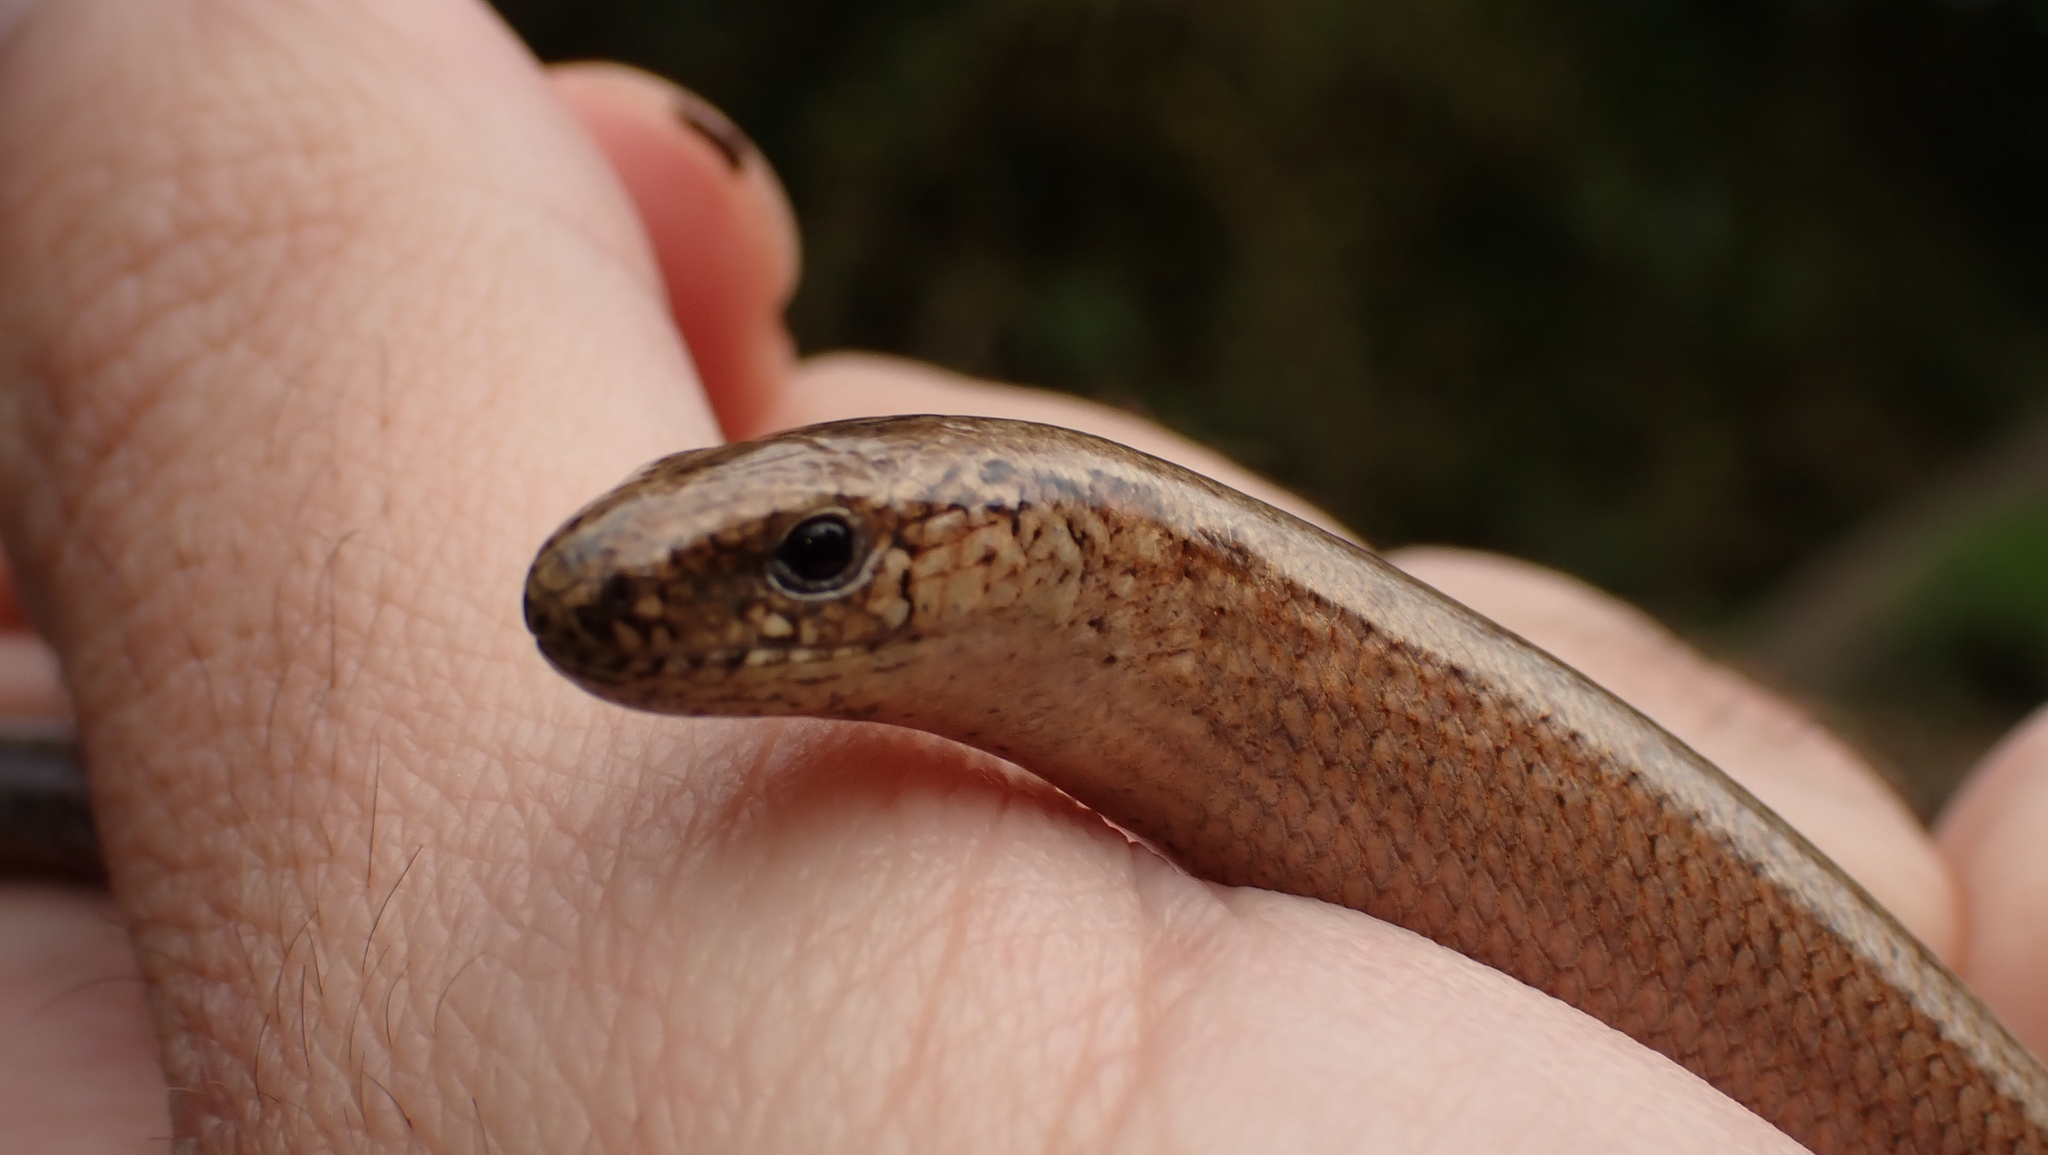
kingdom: Animalia
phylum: Chordata
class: Squamata
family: Anguidae
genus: Anguis
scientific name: Anguis fragilis
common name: Slow worm
